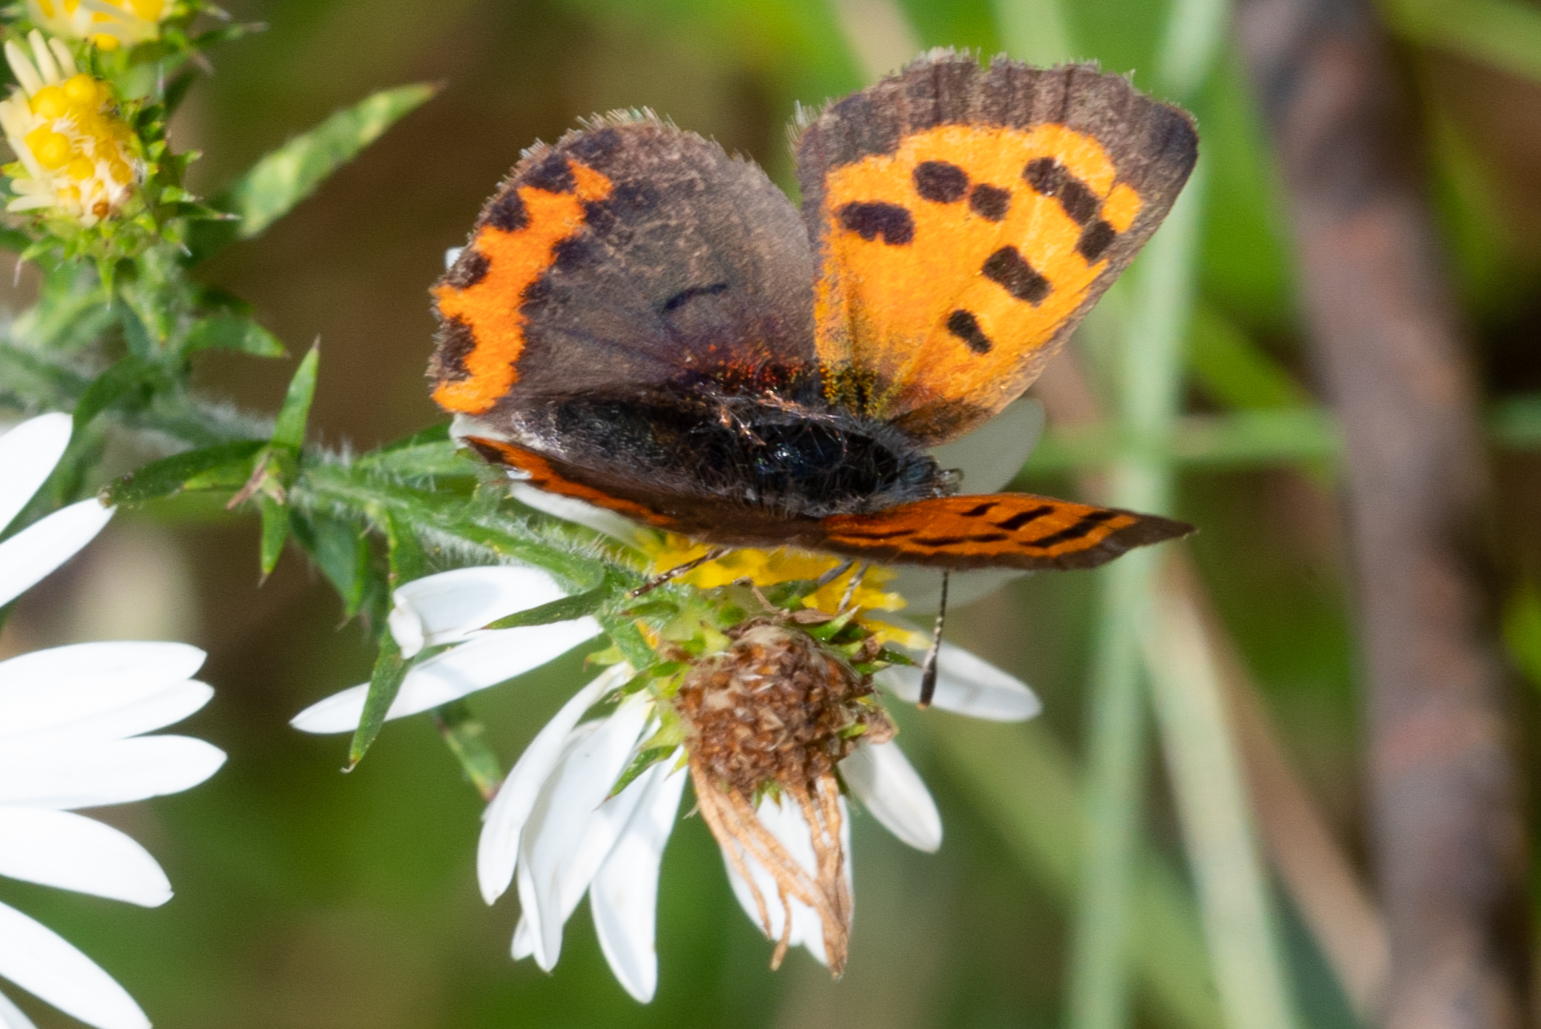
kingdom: Animalia
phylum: Arthropoda
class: Insecta
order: Lepidoptera
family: Lycaenidae
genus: Lycaena
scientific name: Lycaena hypophlaeas
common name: American copper
